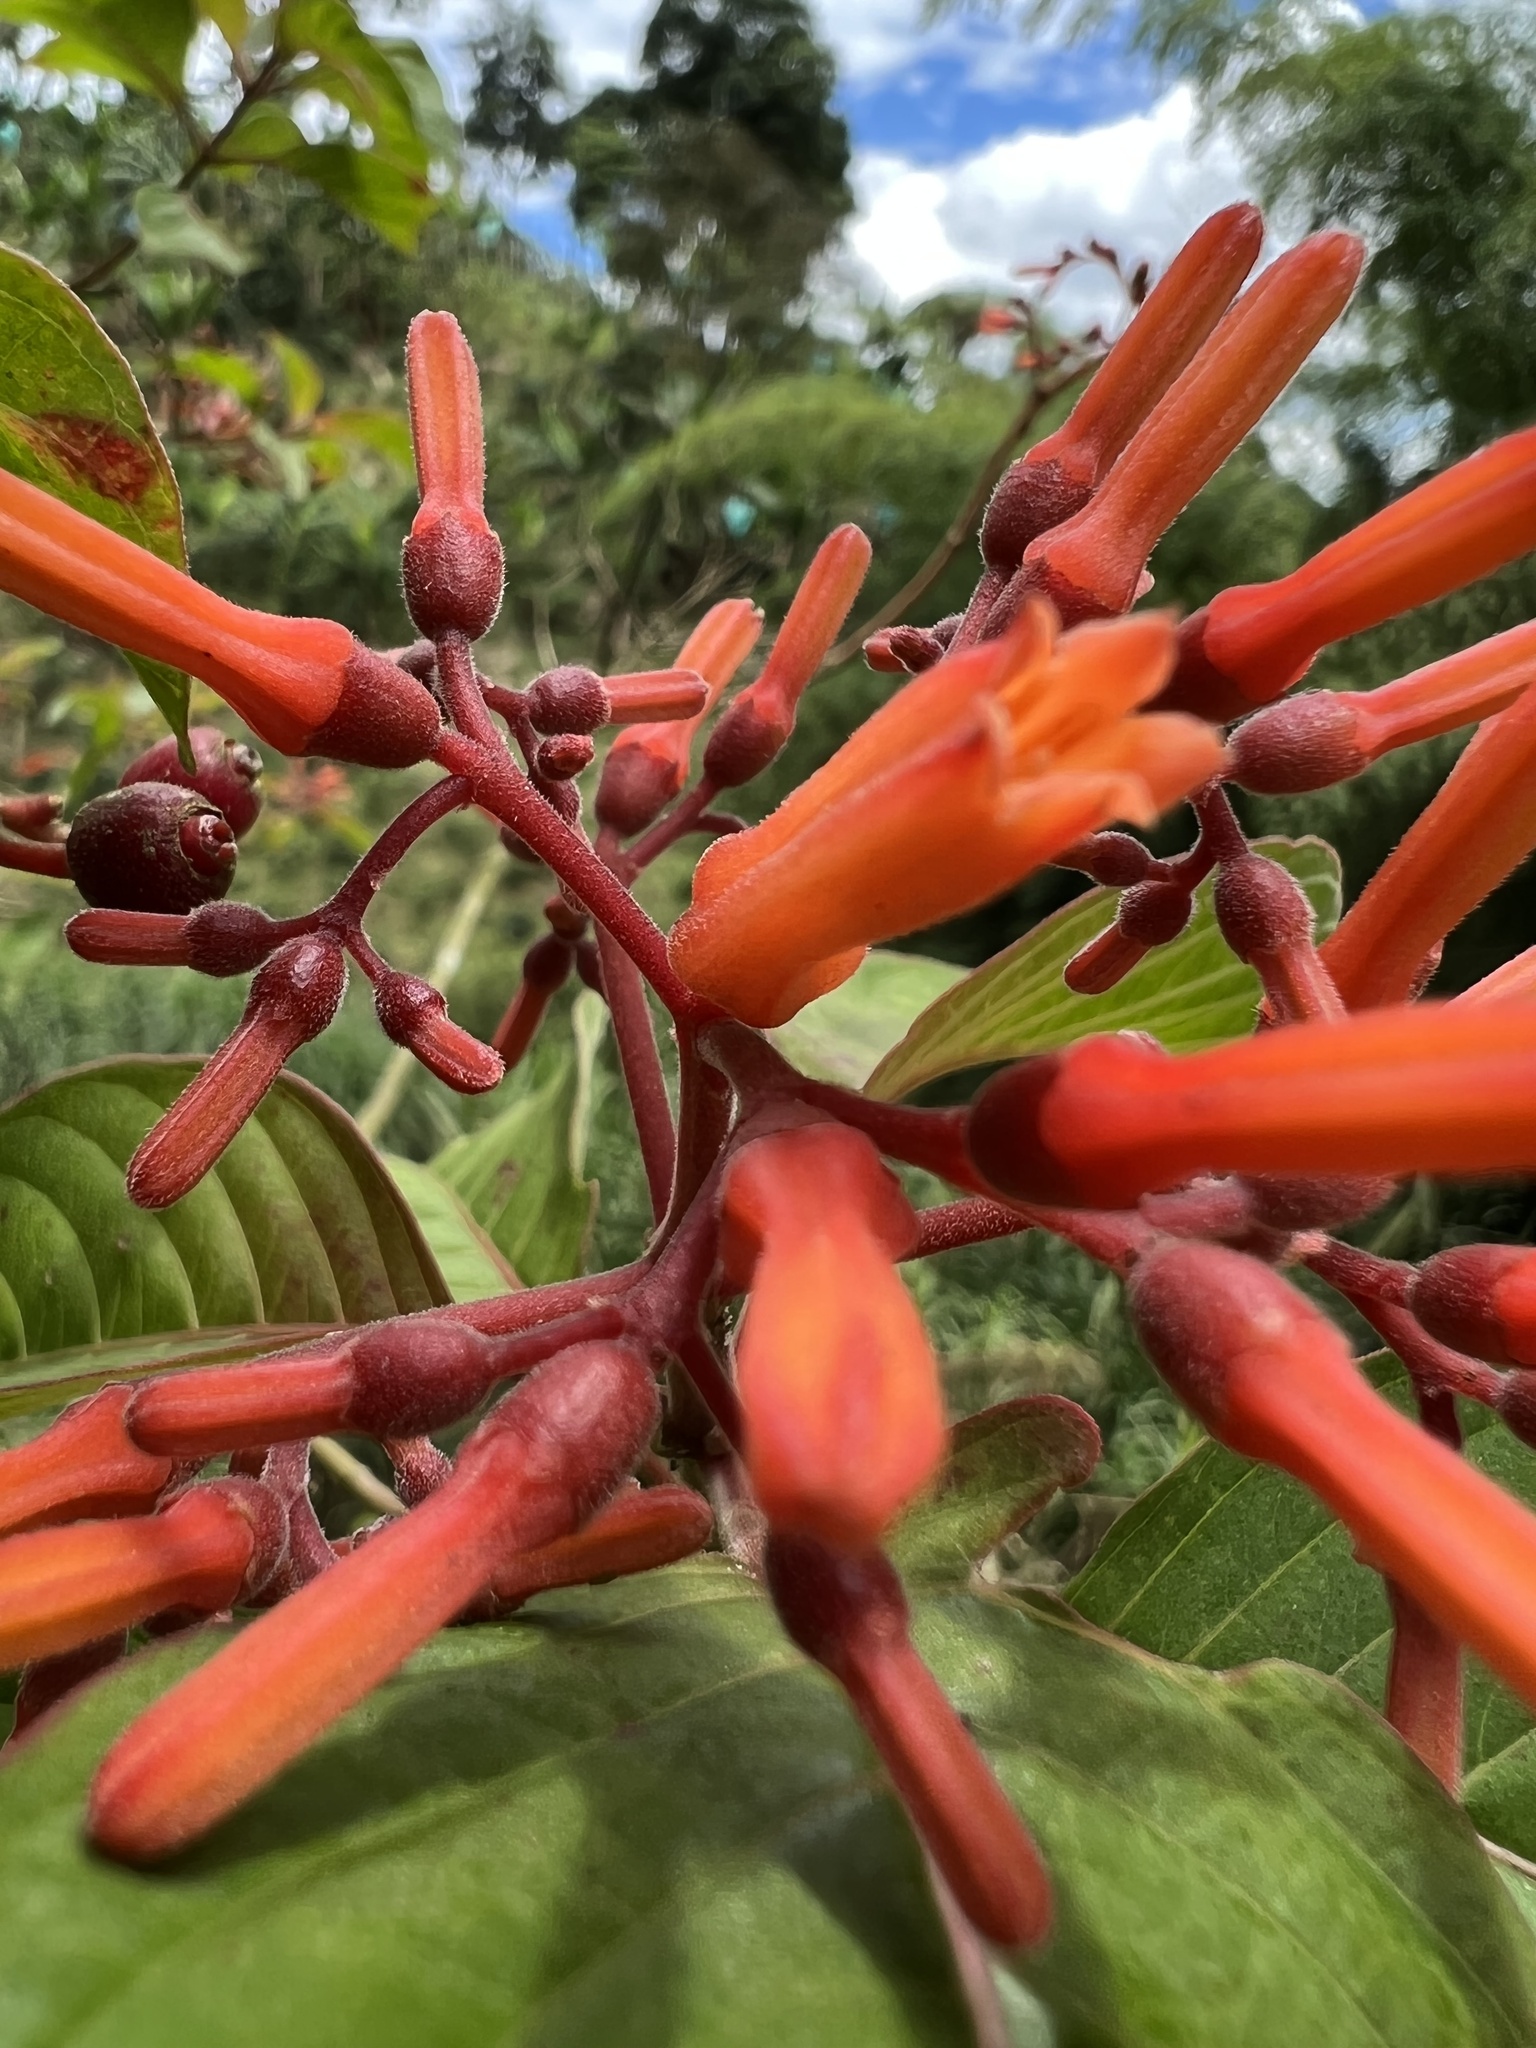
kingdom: Plantae
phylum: Tracheophyta
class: Magnoliopsida
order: Gentianales
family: Rubiaceae
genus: Hamelia
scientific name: Hamelia patens
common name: Redhead
